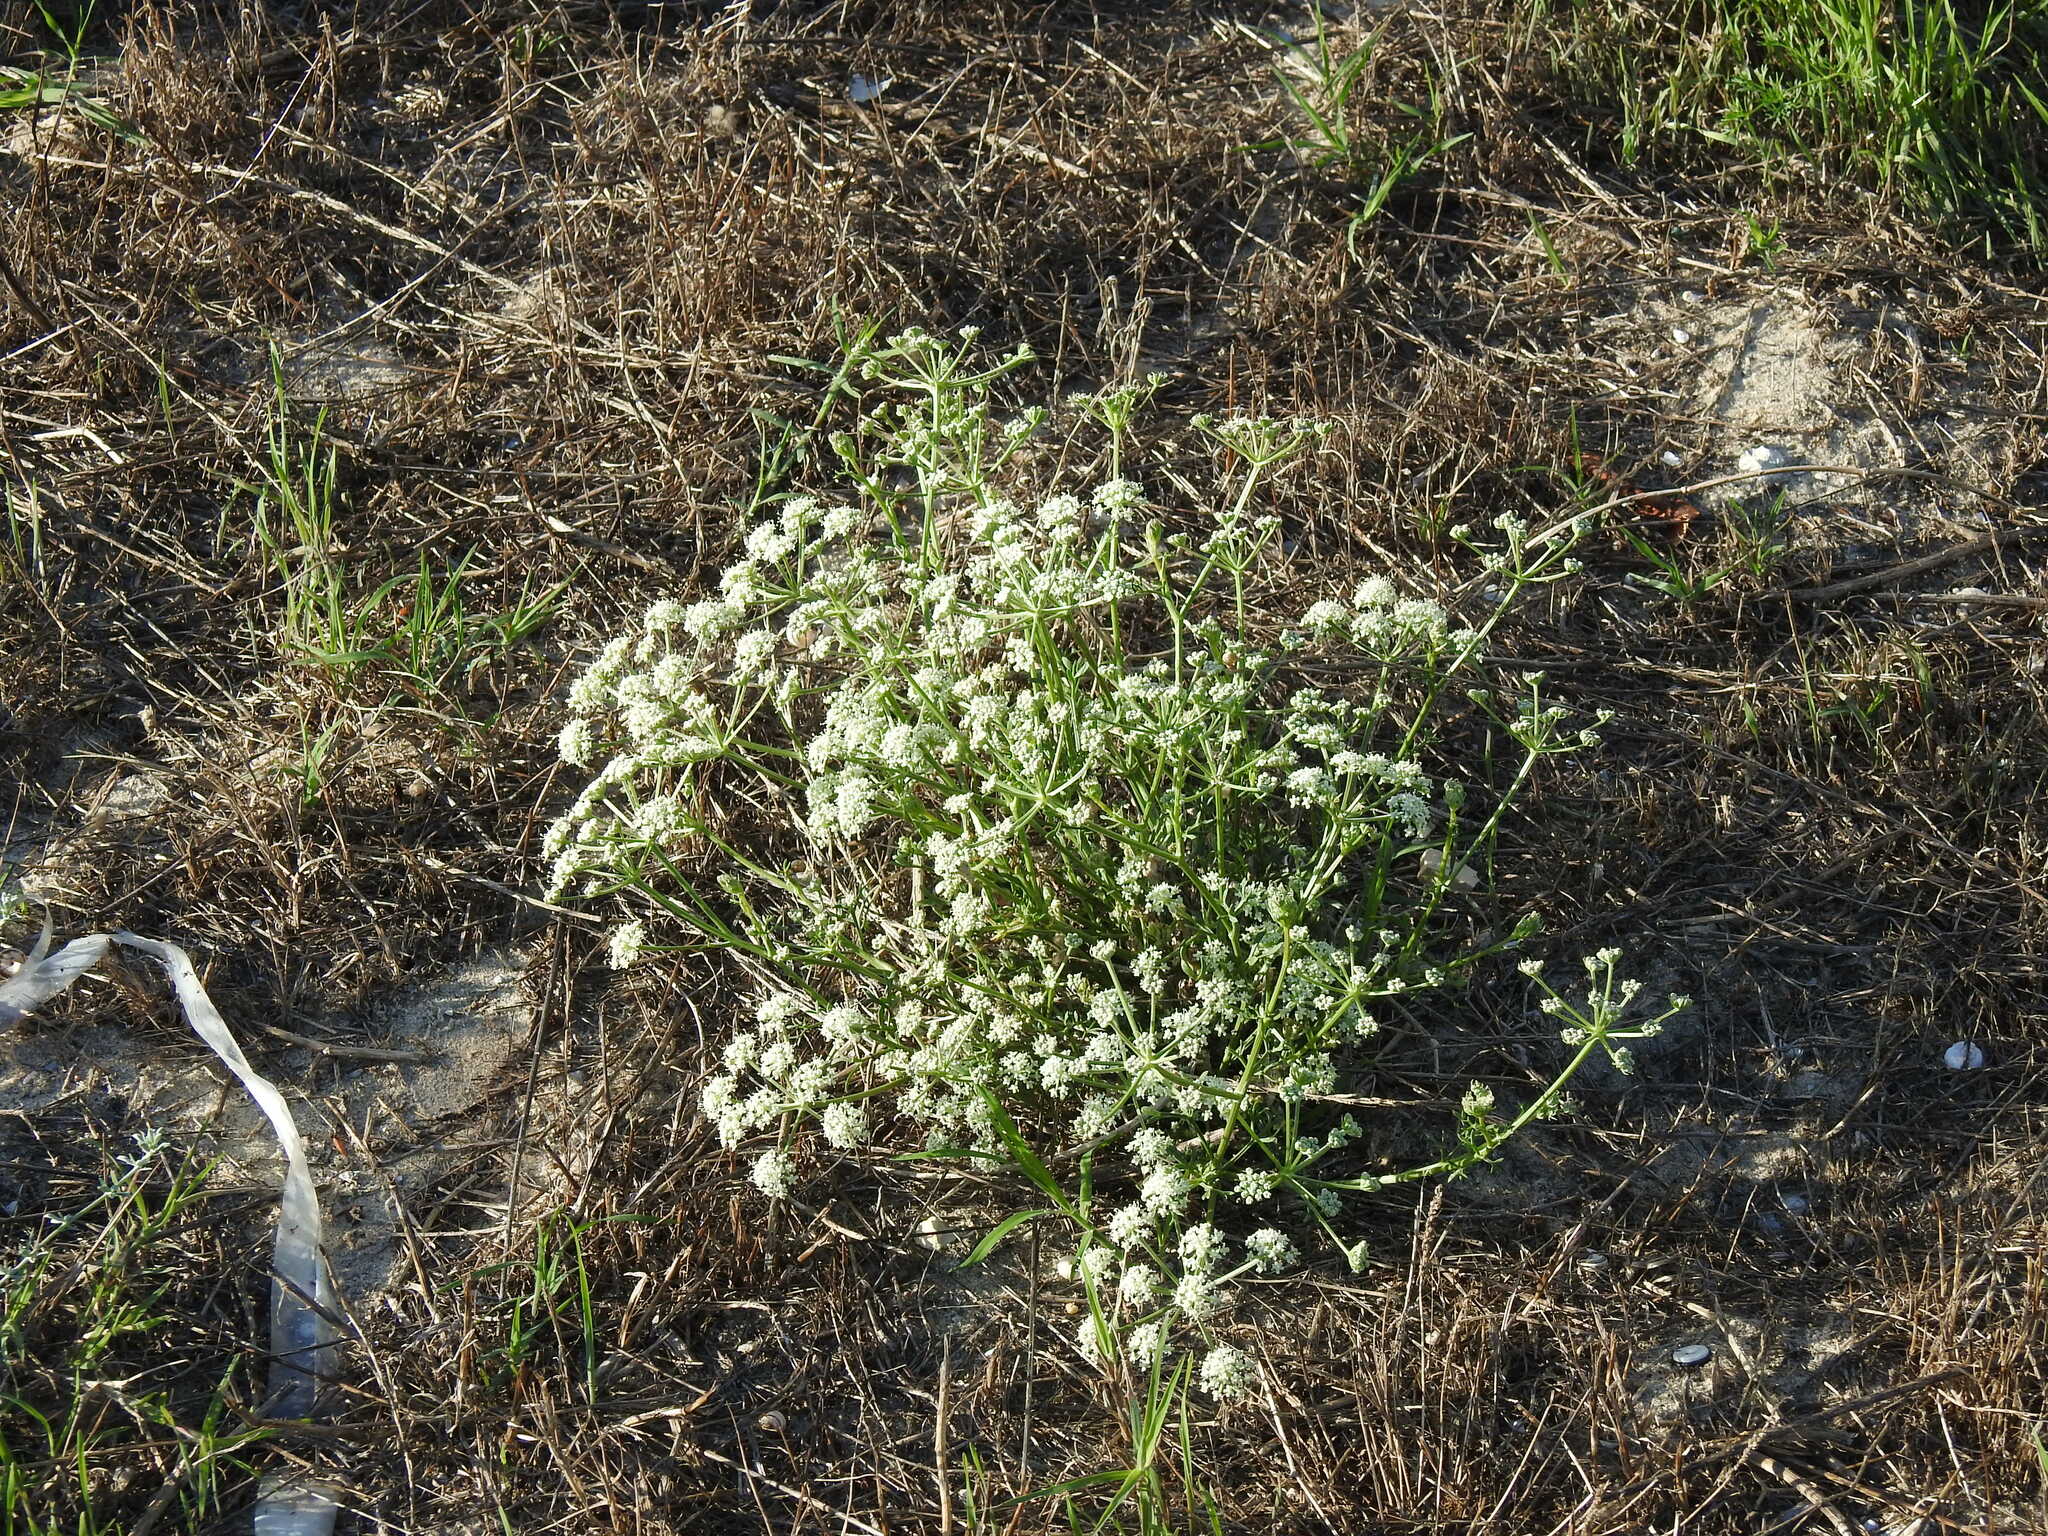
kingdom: Plantae
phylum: Tracheophyta
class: Magnoliopsida
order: Apiales
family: Apiaceae
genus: Seseli
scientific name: Seseli tortuosum
